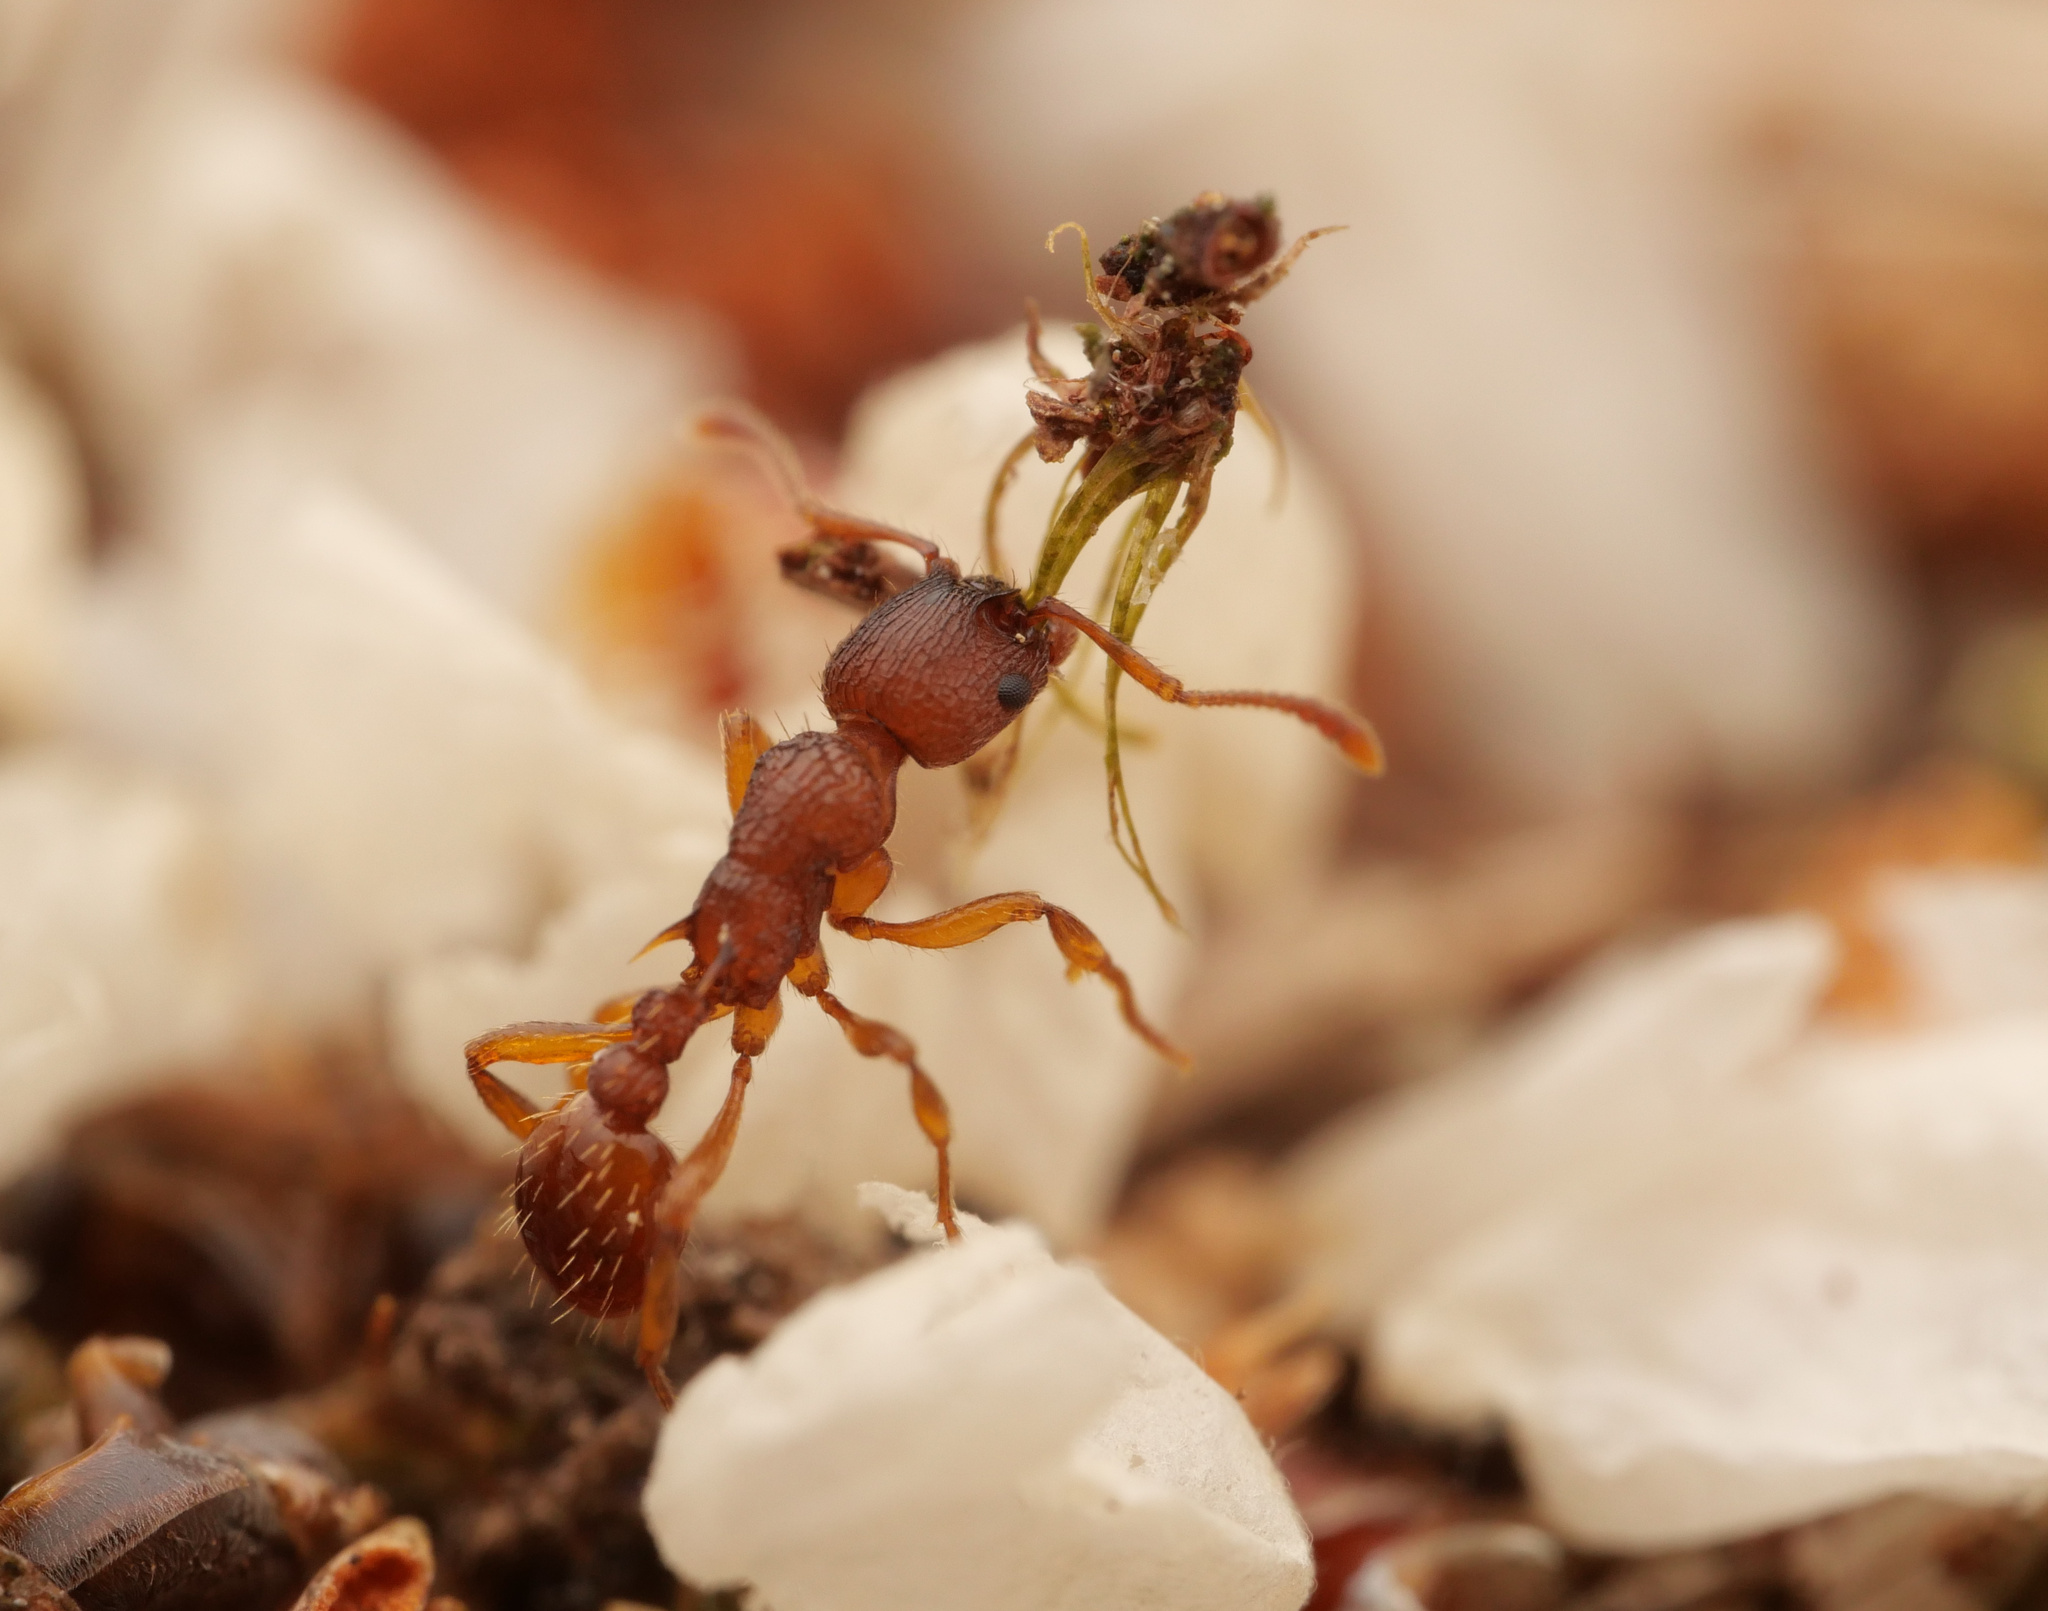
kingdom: Animalia
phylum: Arthropoda
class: Insecta
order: Hymenoptera
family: Formicidae
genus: Myrmica
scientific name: Myrmica scabrinodis
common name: Ant
